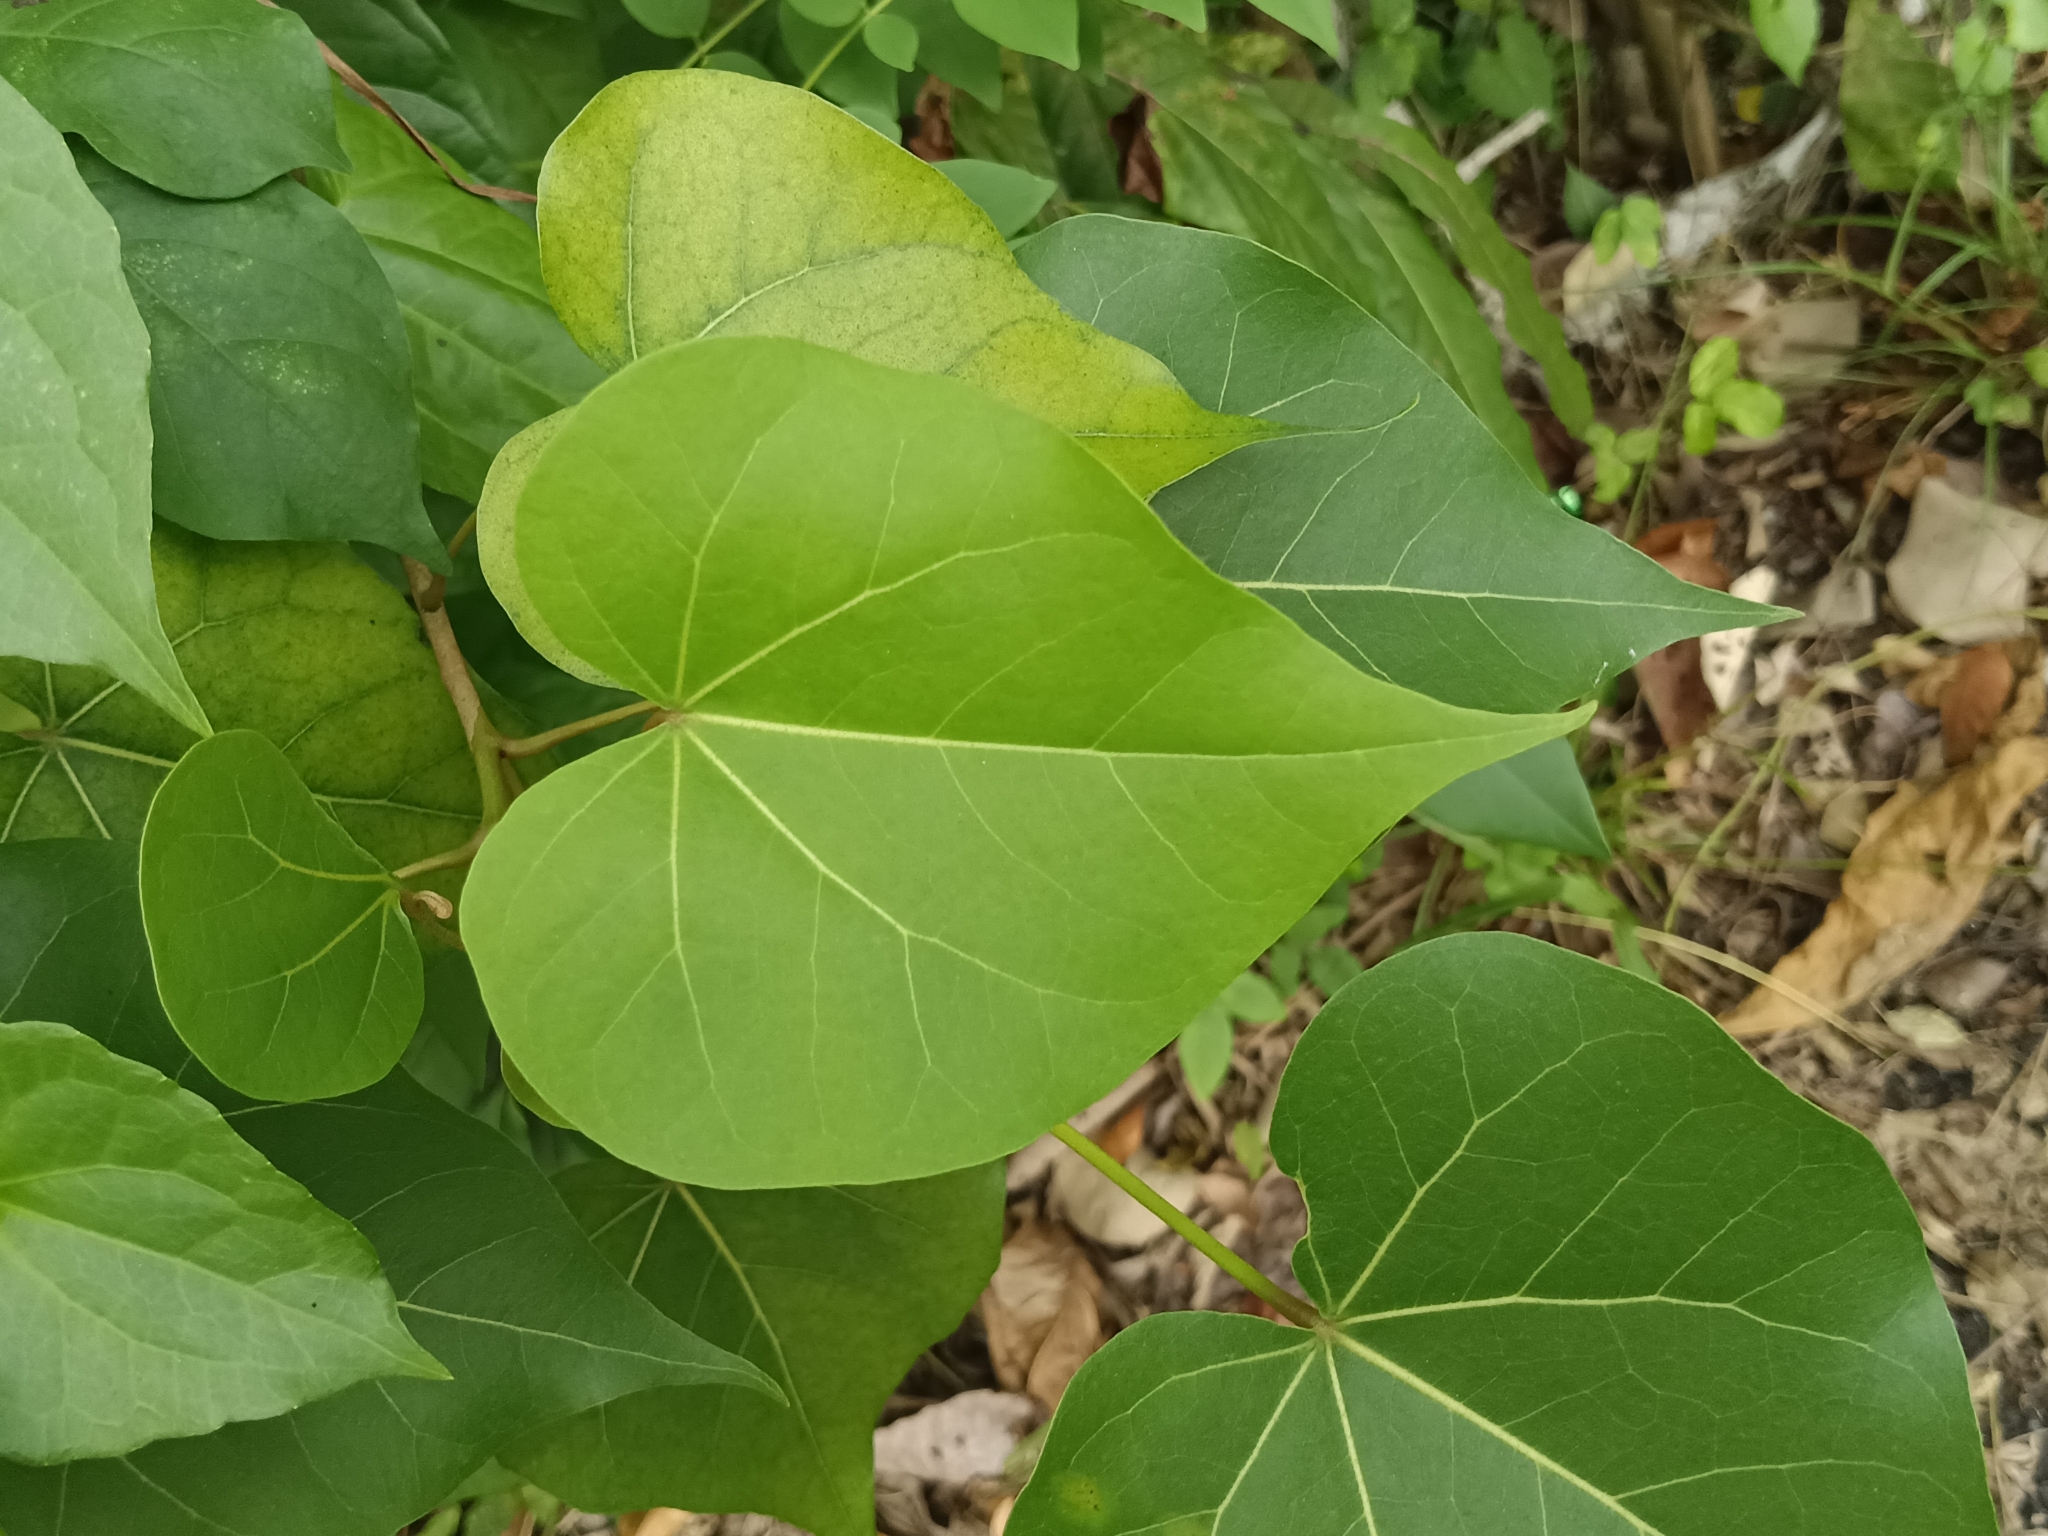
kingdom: Plantae
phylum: Tracheophyta
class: Magnoliopsida
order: Malvales
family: Malvaceae
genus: Thespesia
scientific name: Thespesia populnea
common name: Seaside mahoe
